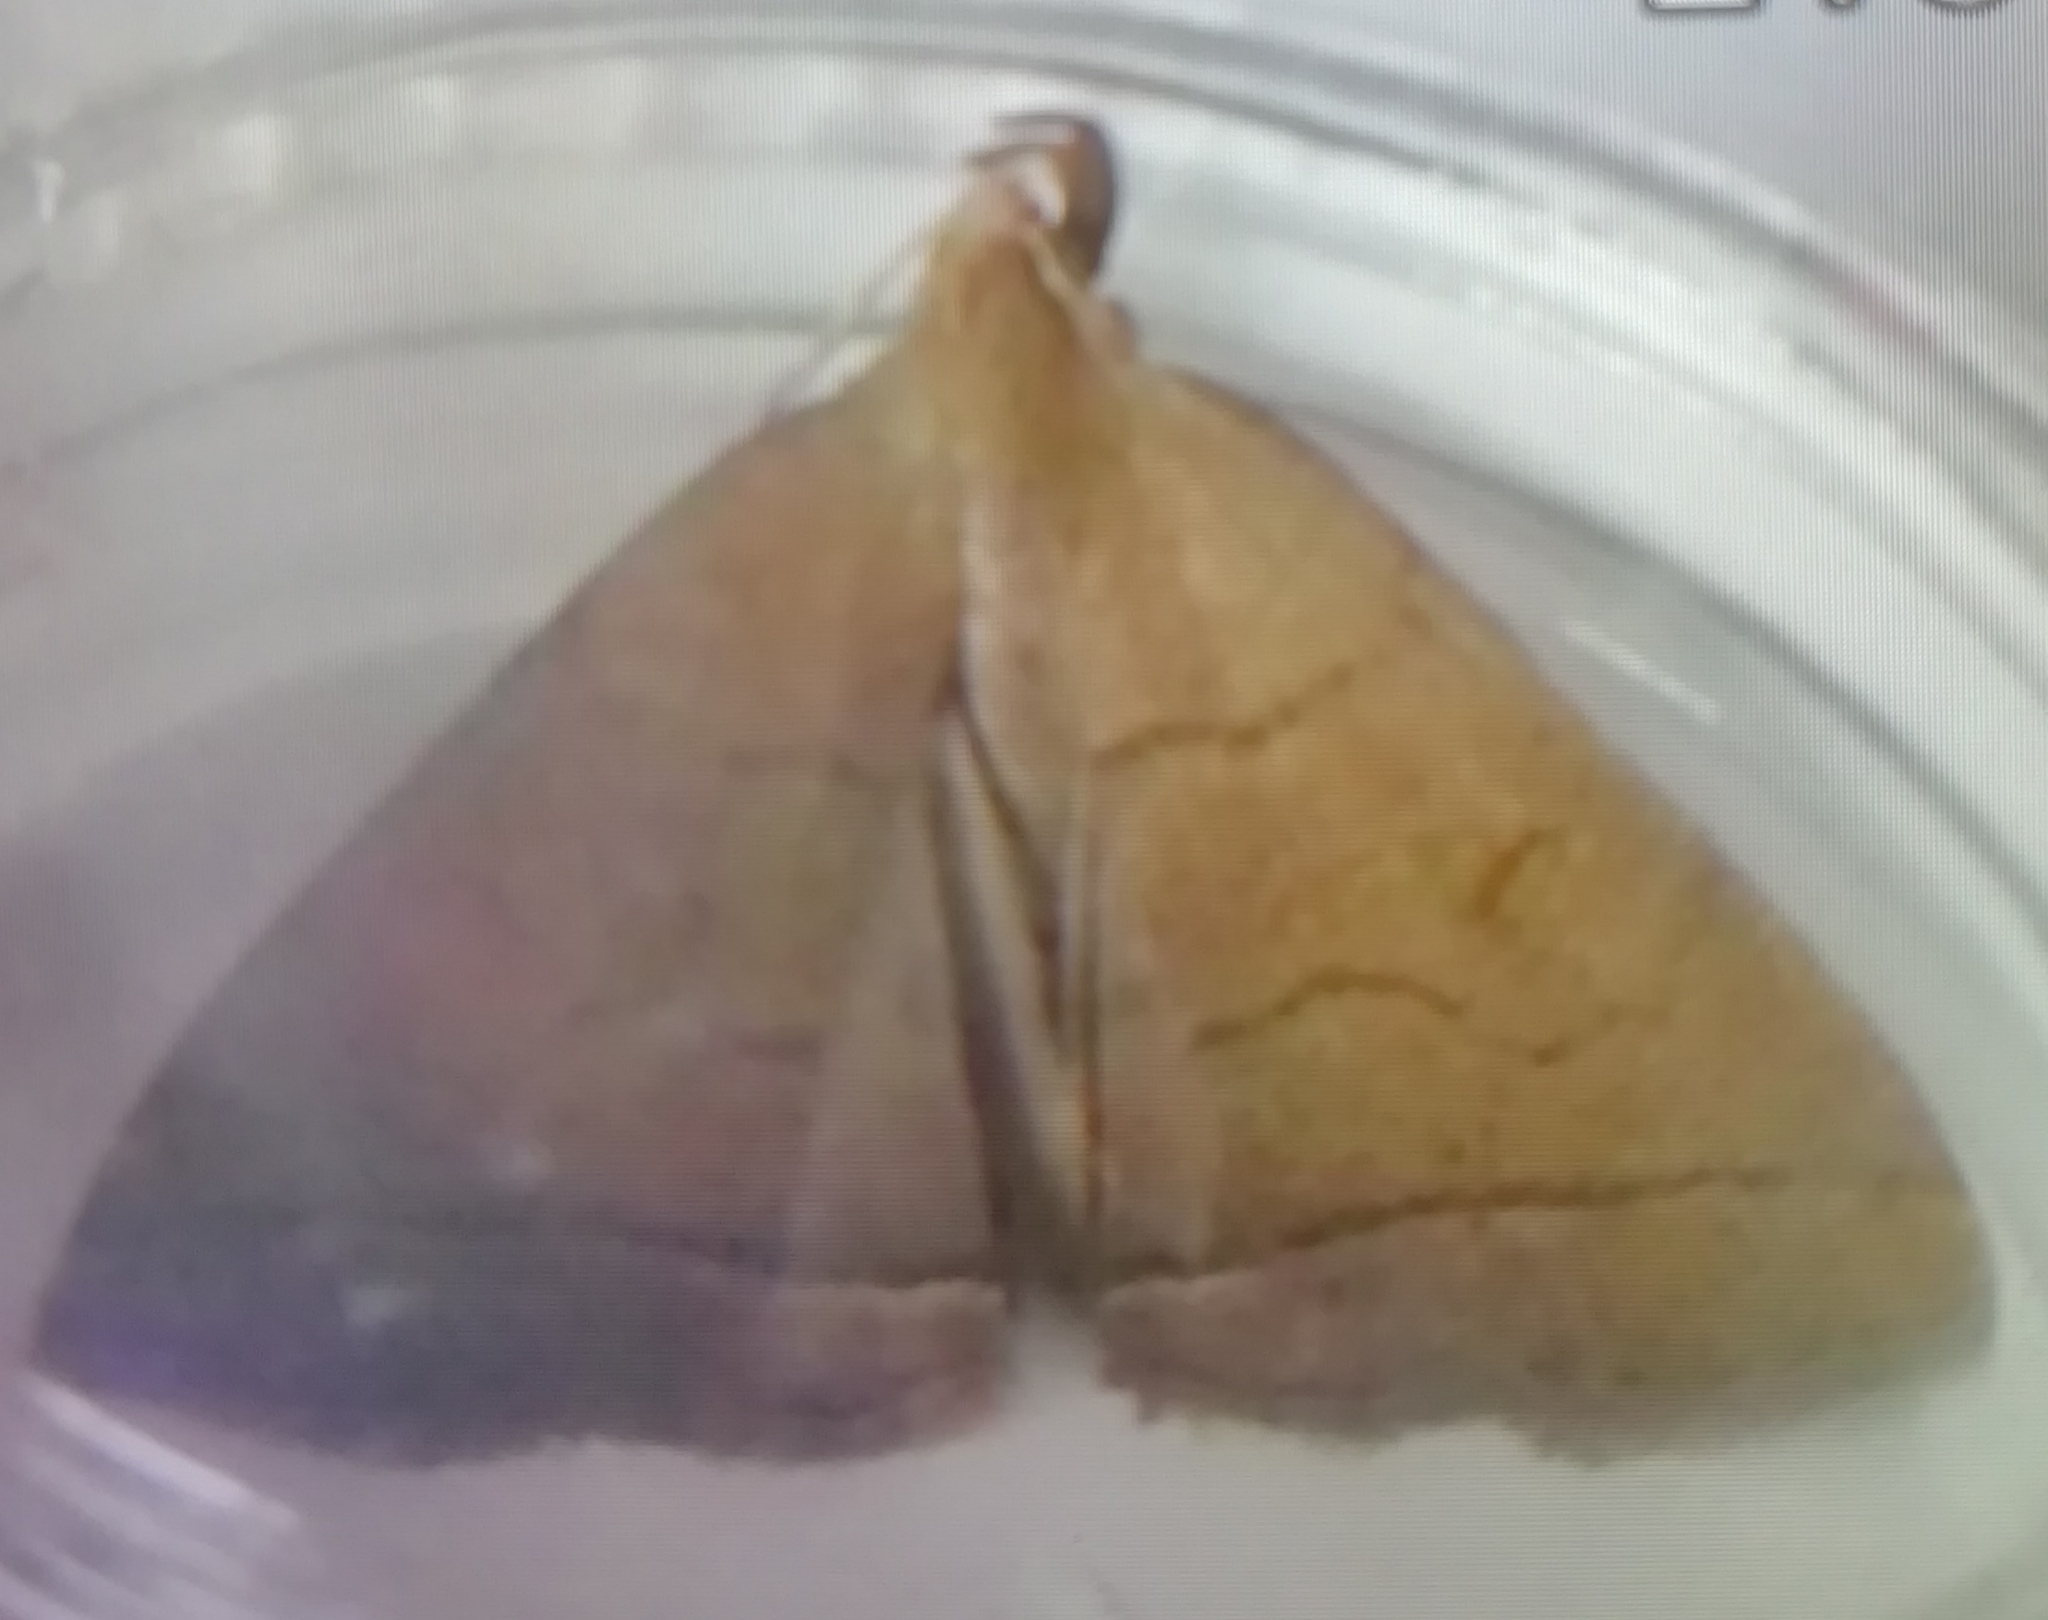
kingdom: Animalia
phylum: Arthropoda
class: Insecta
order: Lepidoptera
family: Erebidae
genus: Herminia
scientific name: Herminia tarsipennalis
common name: Fan-foot
